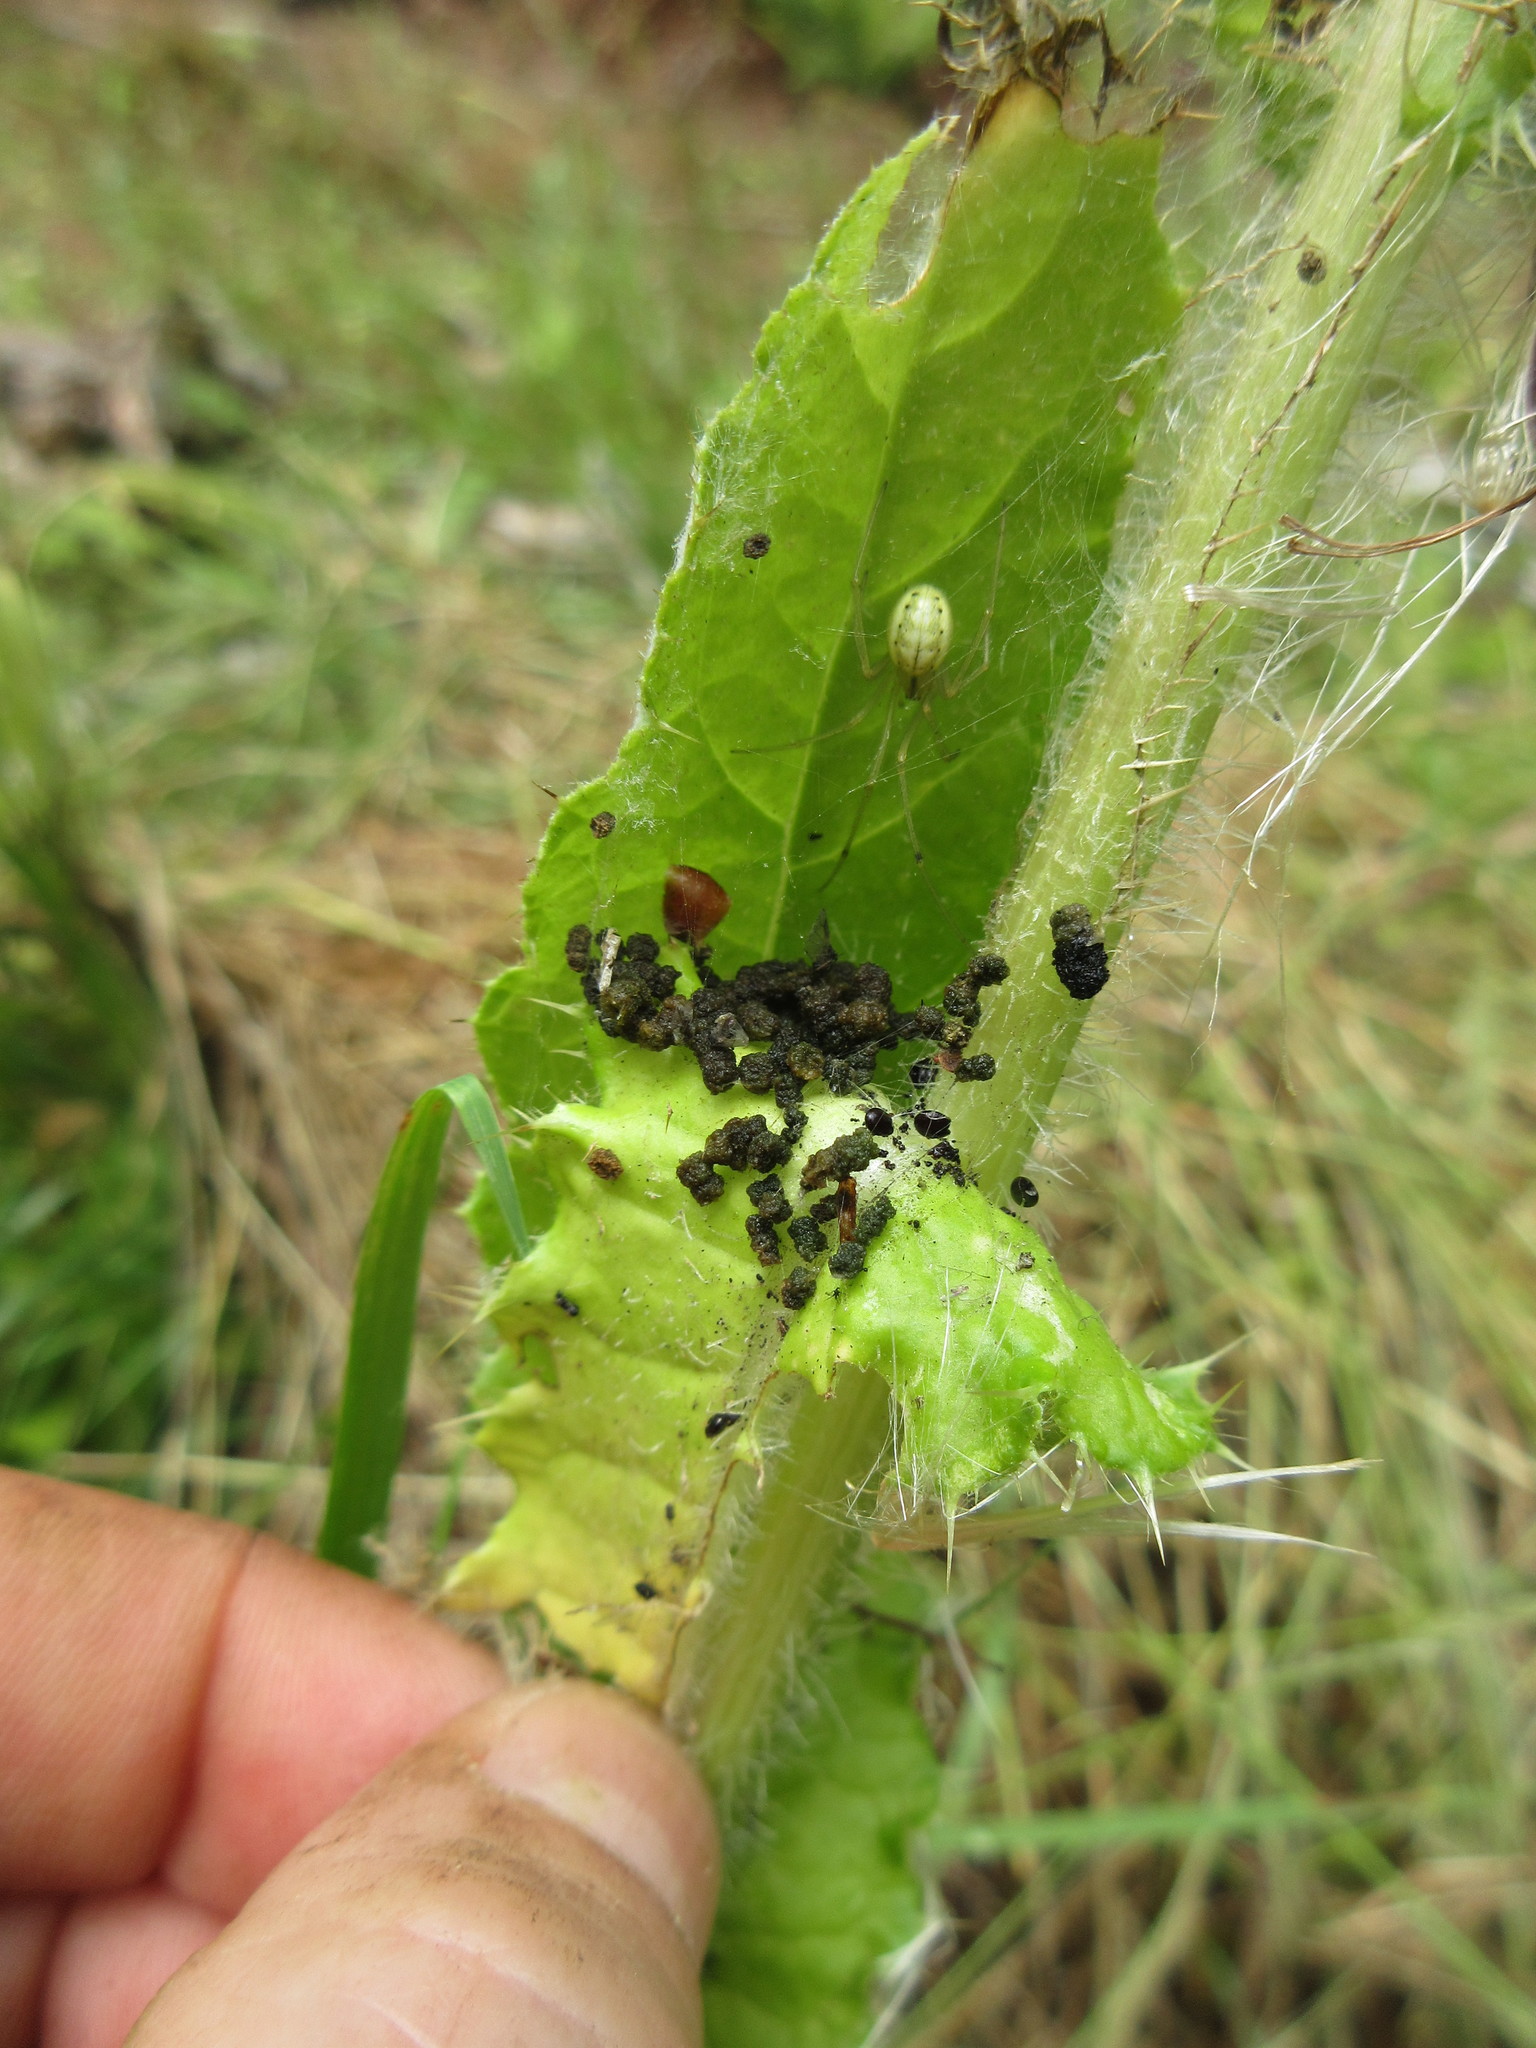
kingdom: Animalia
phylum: Arthropoda
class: Arachnida
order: Araneae
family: Theridiidae
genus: Enoplognatha
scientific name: Enoplognatha ovata
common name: Common candy-striped spider
